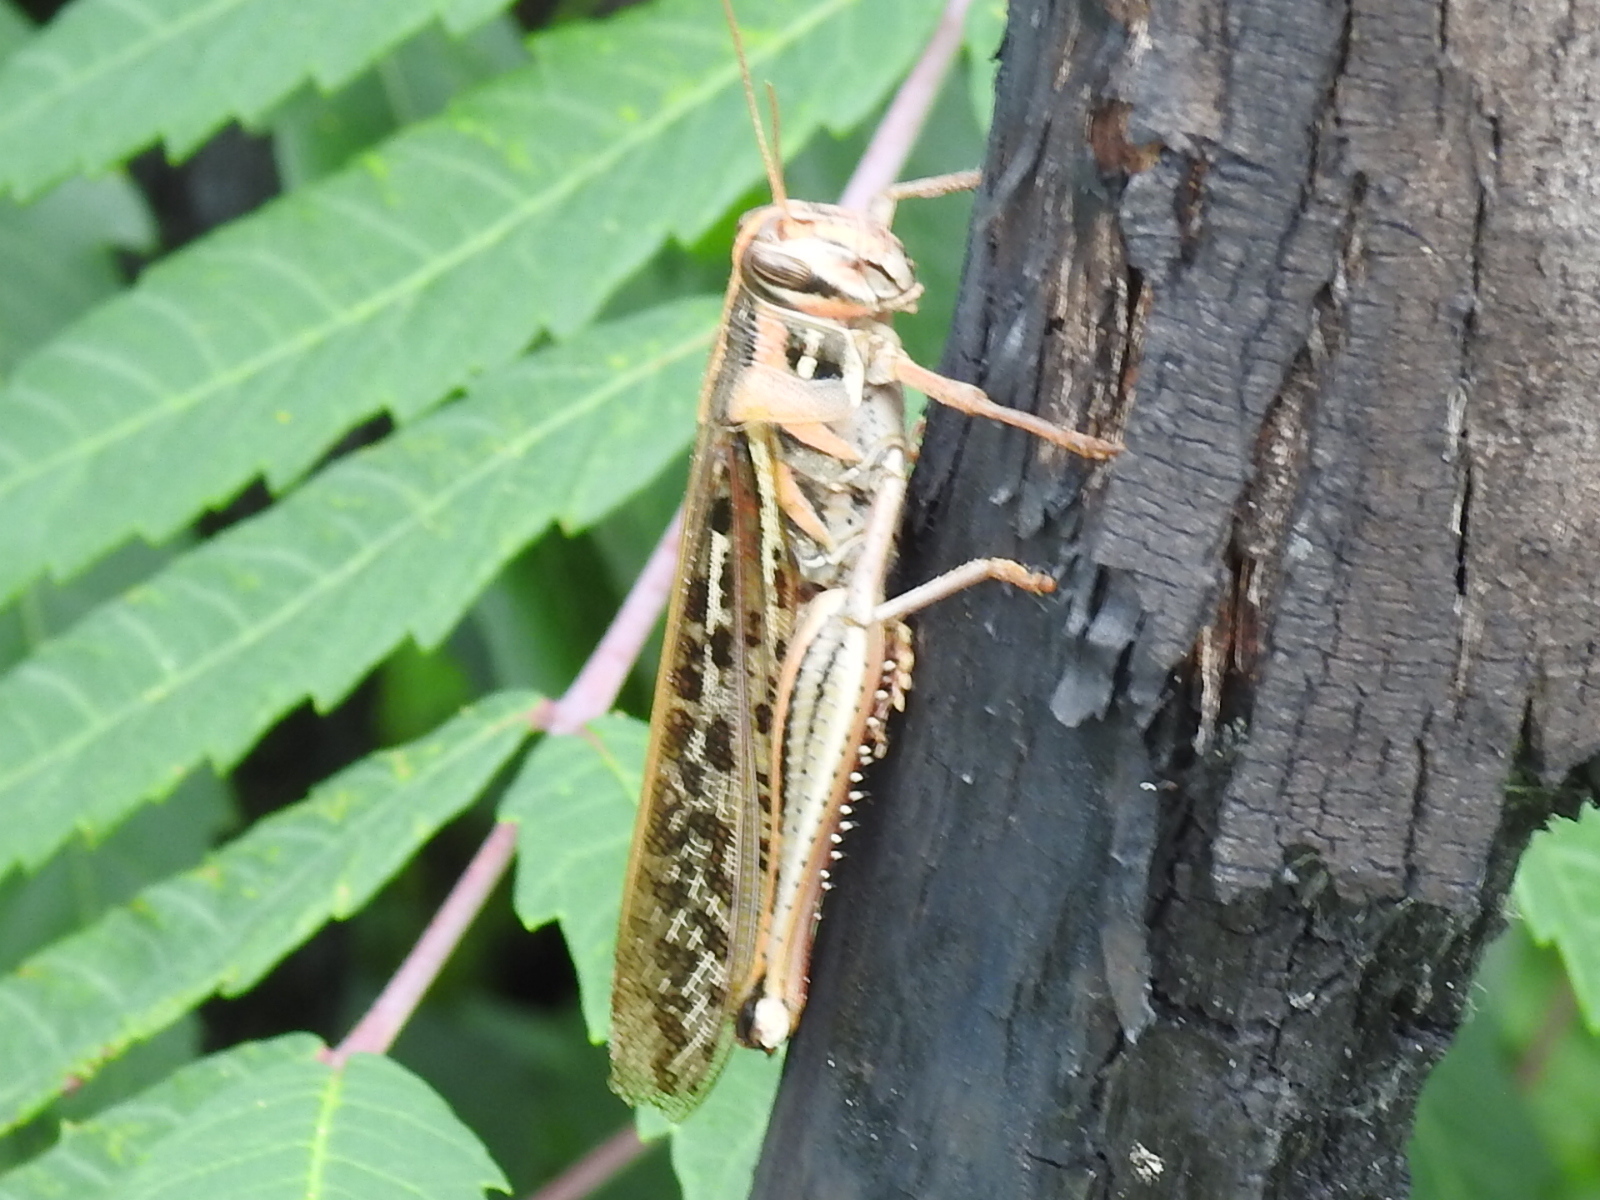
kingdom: Animalia
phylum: Arthropoda
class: Insecta
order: Orthoptera
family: Acrididae
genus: Schistocerca
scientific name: Schistocerca americana
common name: American bird locust
